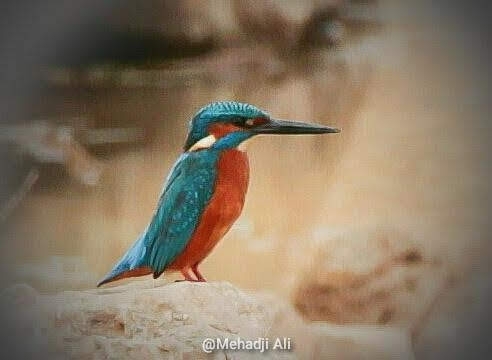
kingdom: Animalia
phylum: Chordata
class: Aves
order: Coraciiformes
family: Alcedinidae
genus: Alcedo
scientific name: Alcedo atthis
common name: Common kingfisher
